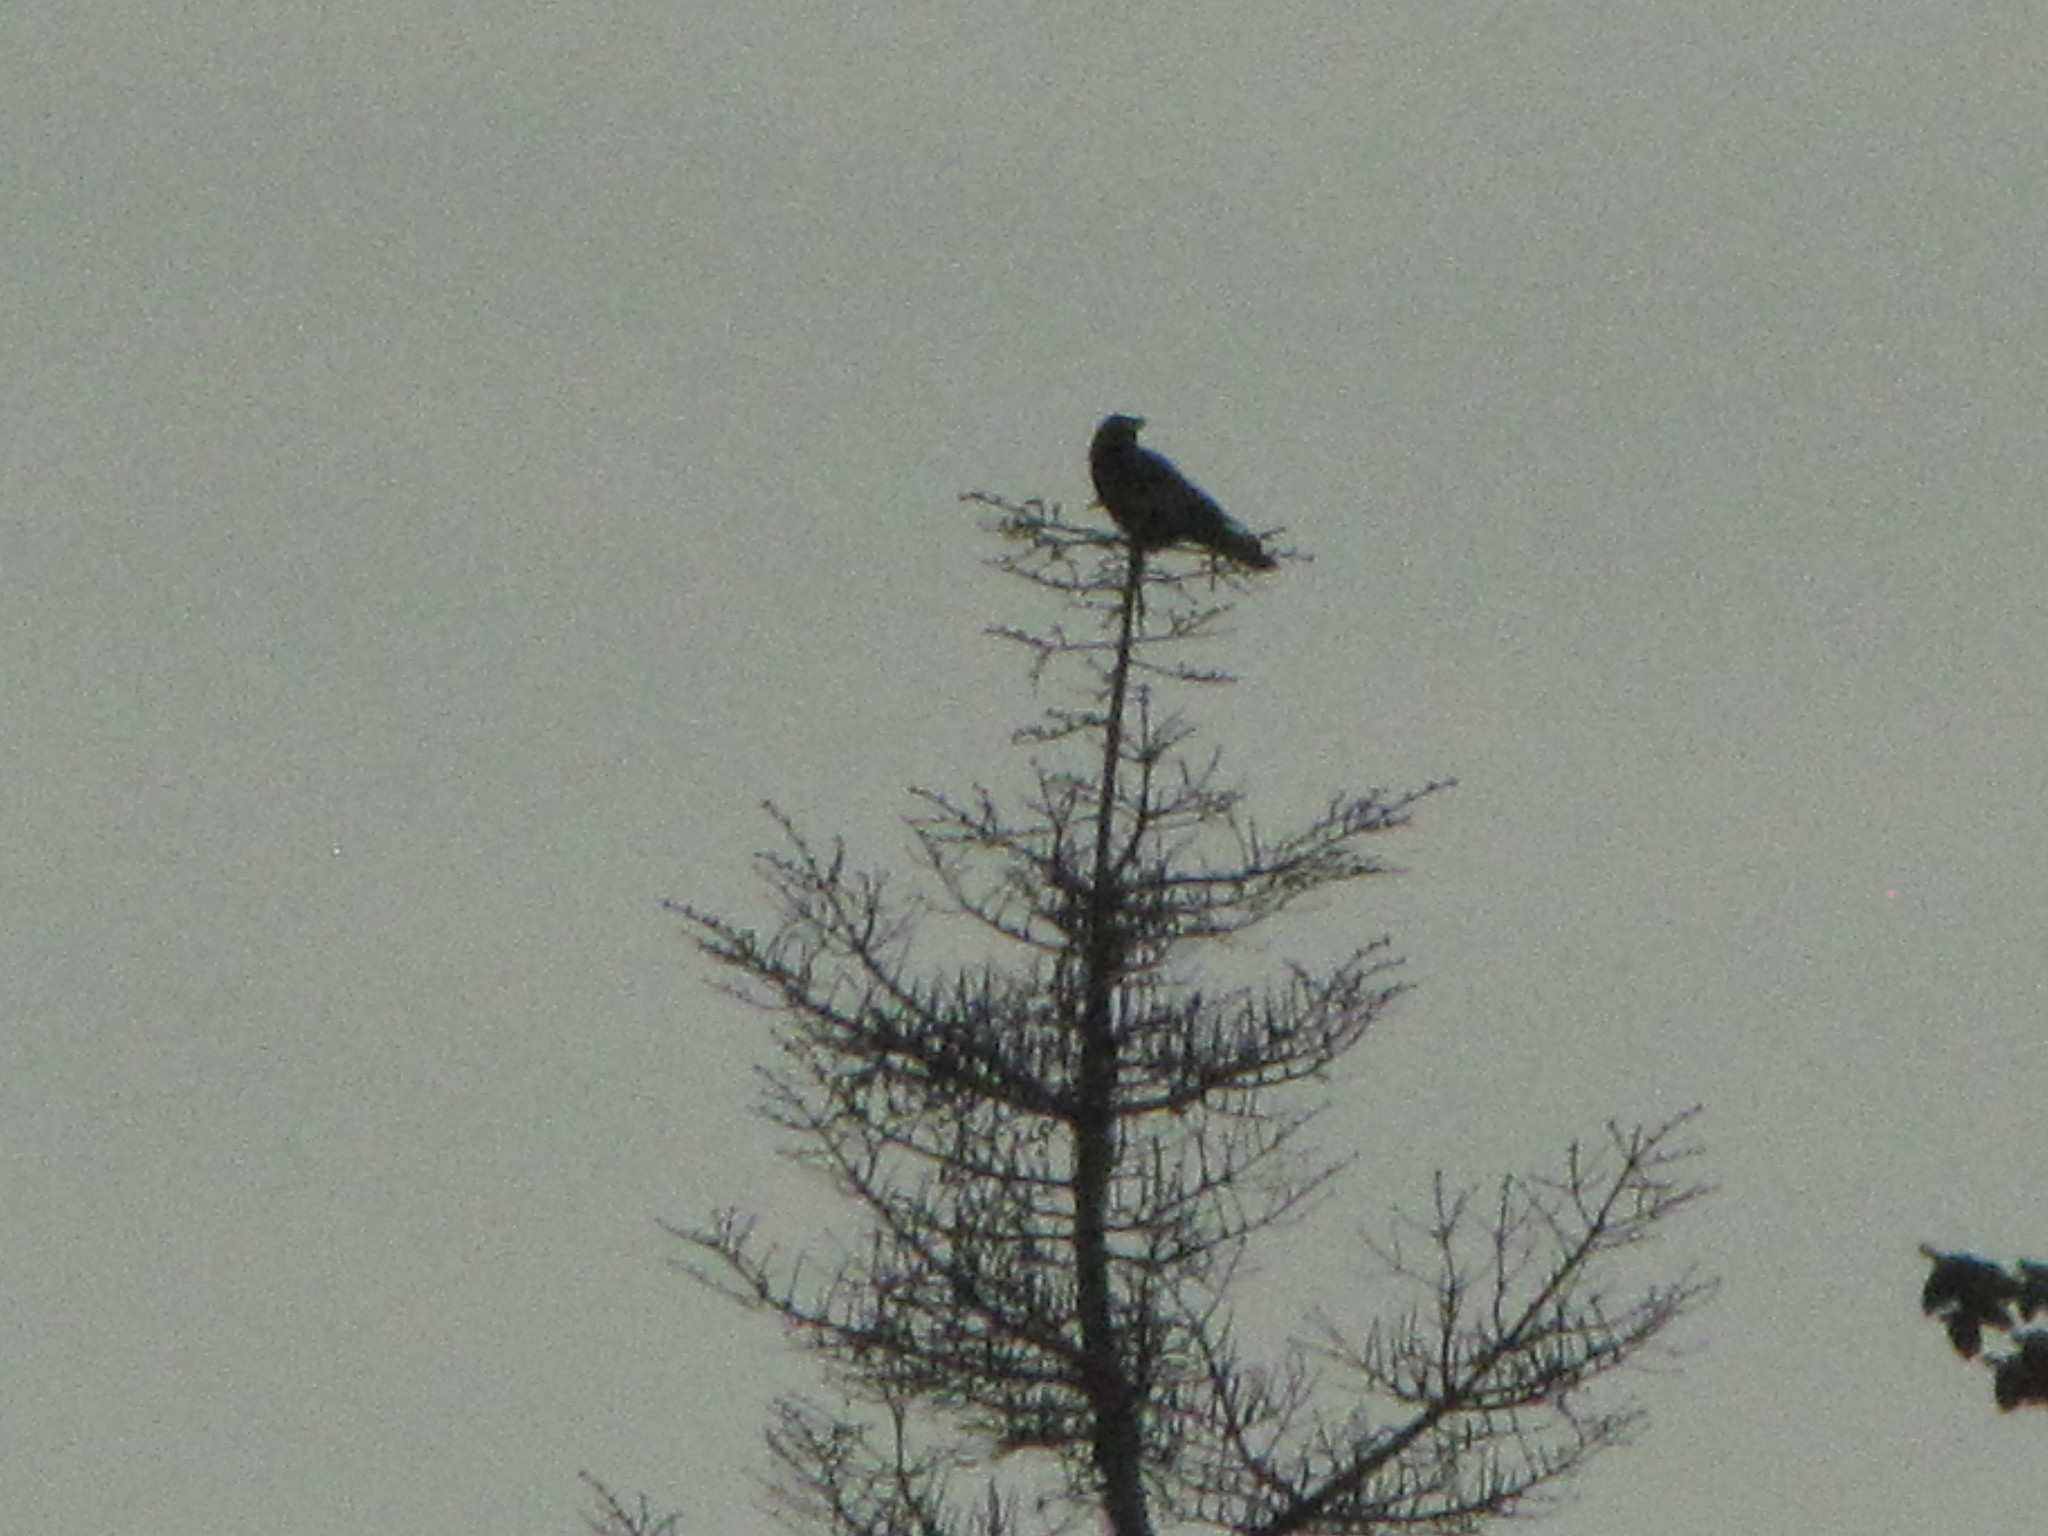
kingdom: Animalia
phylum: Chordata
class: Aves
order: Passeriformes
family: Corvidae
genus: Corvus
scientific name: Corvus corax
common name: Common raven
